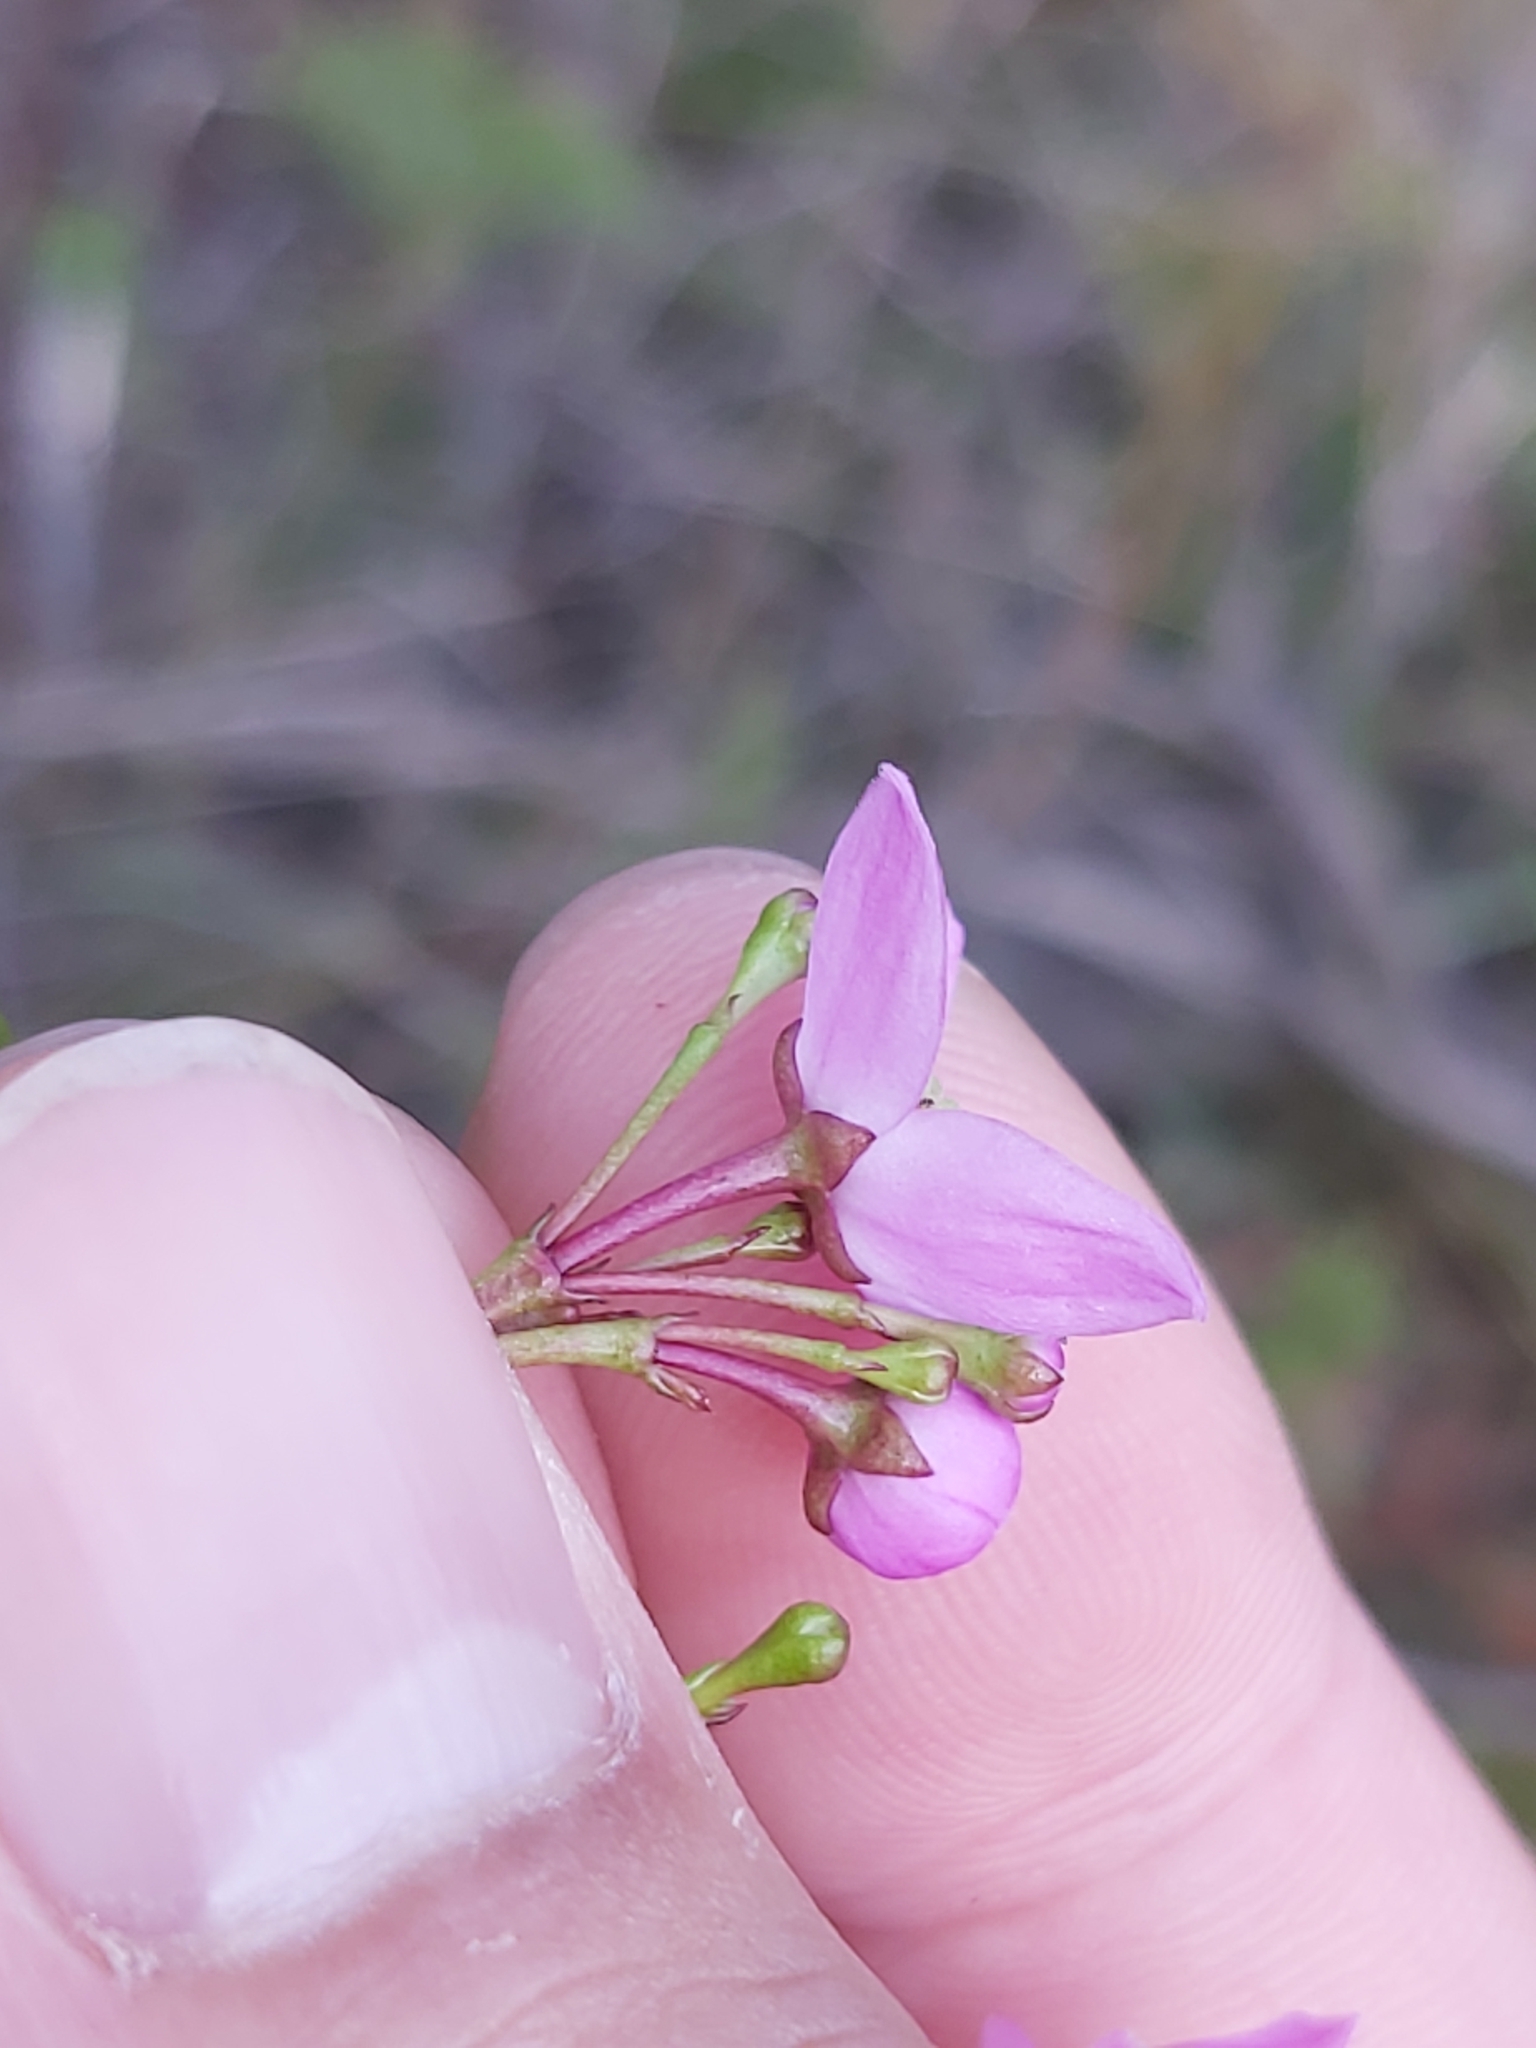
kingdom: Plantae
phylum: Tracheophyta
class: Magnoliopsida
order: Sapindales
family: Rutaceae
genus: Boronia
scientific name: Boronia pinnata
